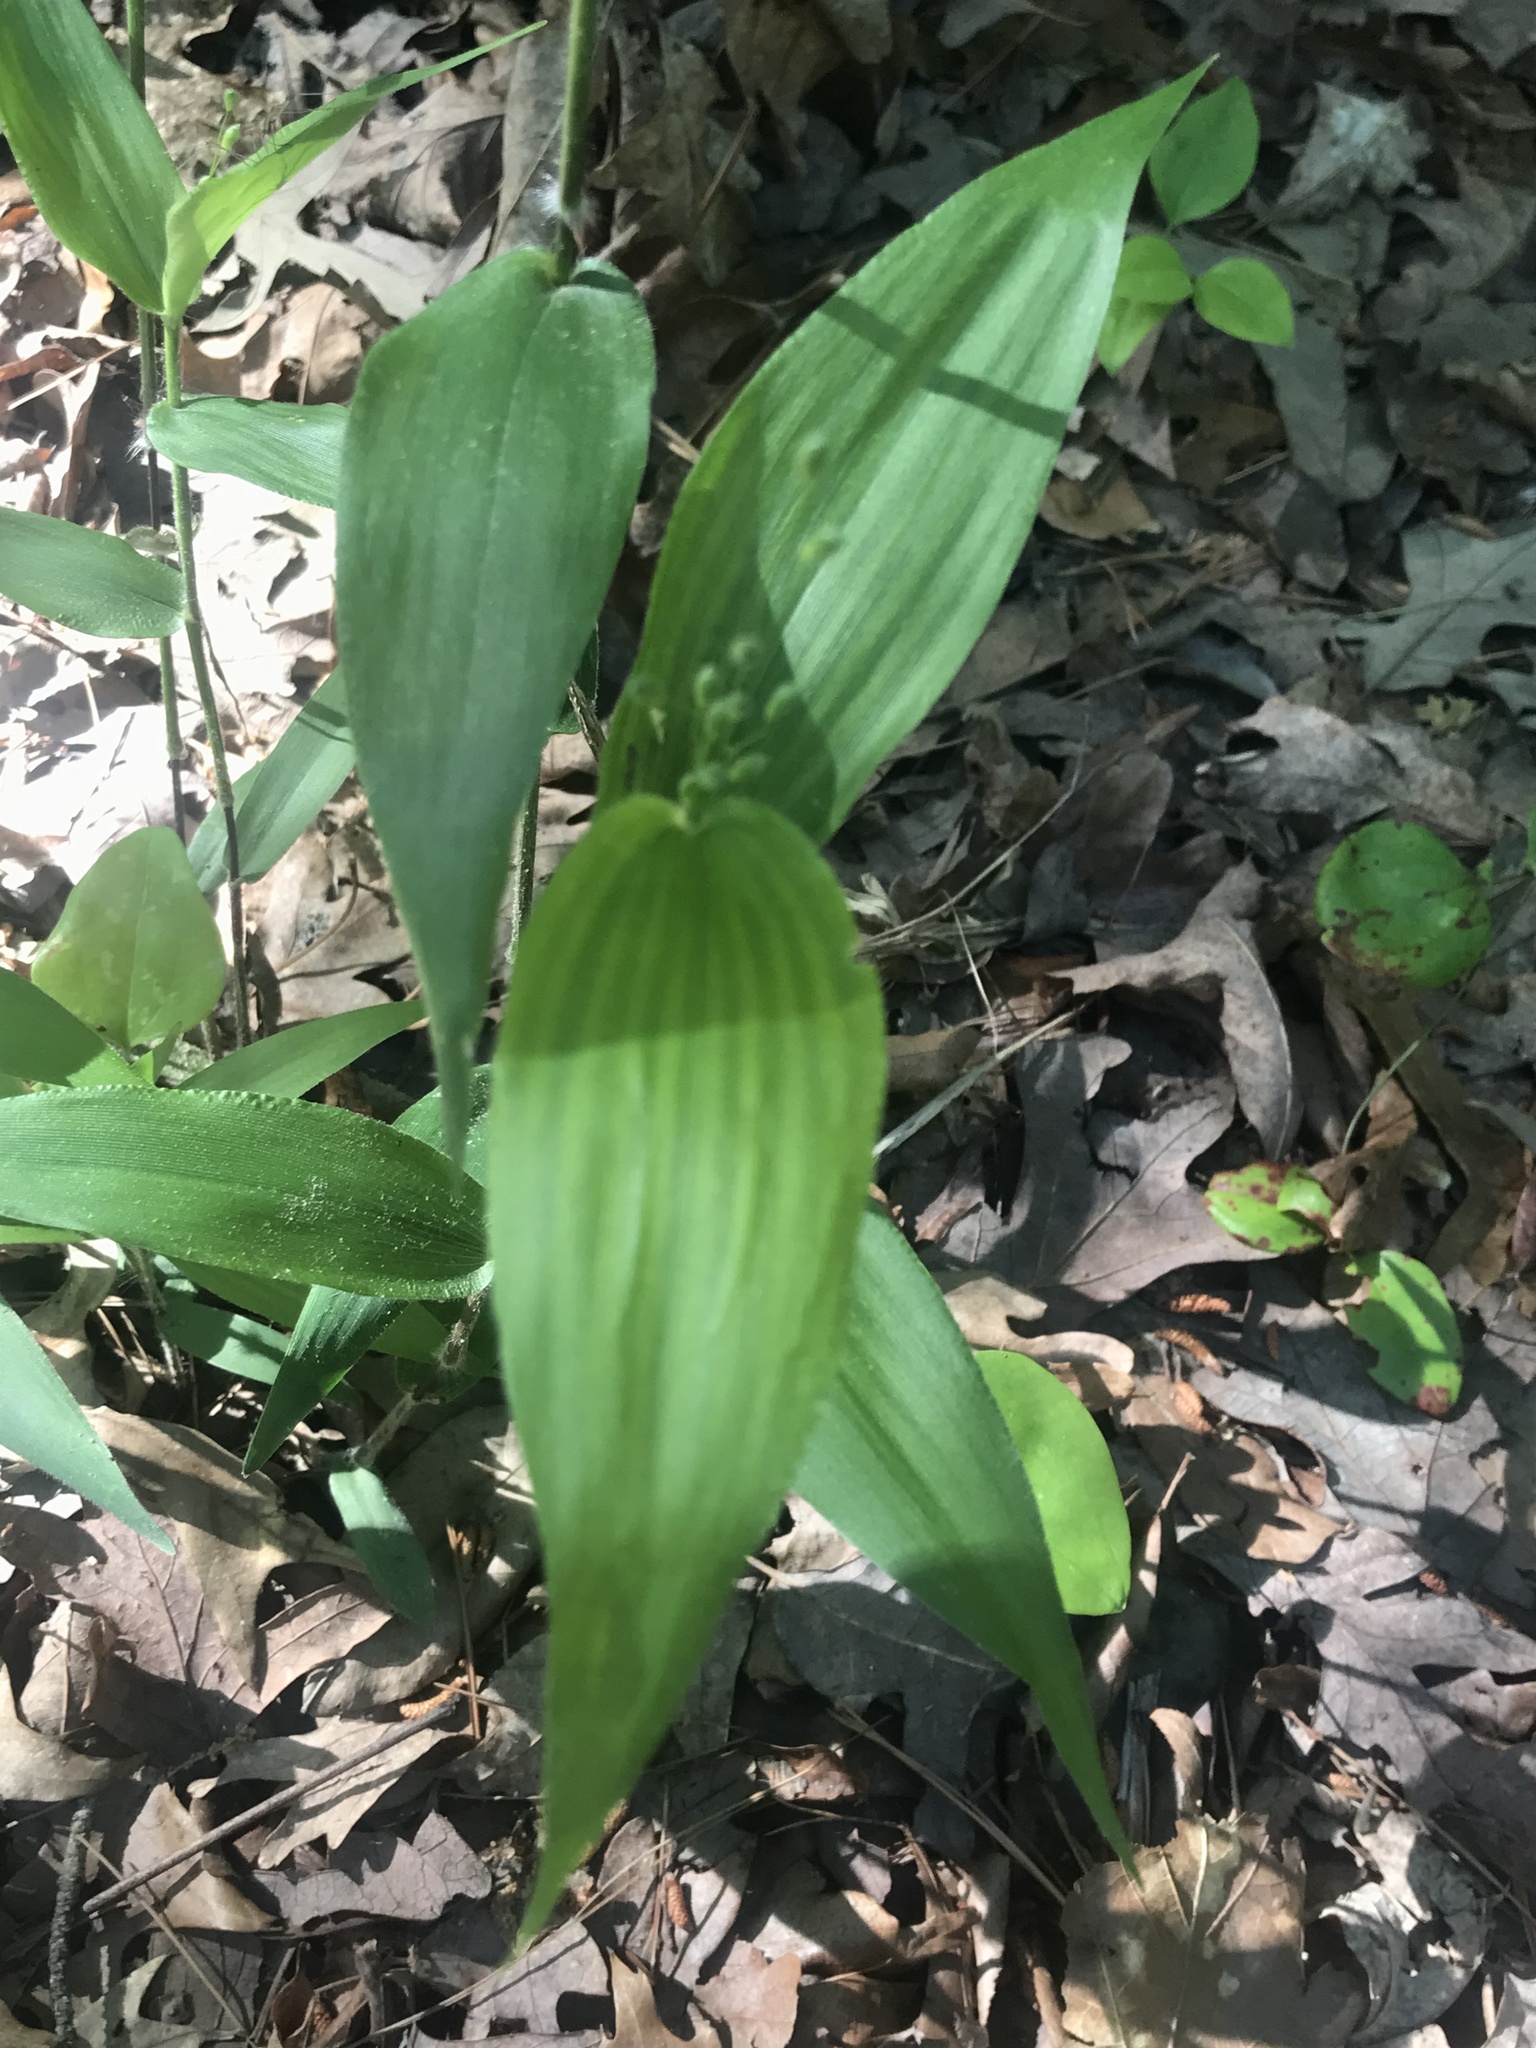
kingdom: Plantae
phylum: Tracheophyta
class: Liliopsida
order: Poales
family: Poaceae
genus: Dichanthelium
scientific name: Dichanthelium boscii
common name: Bosc's panic grass
